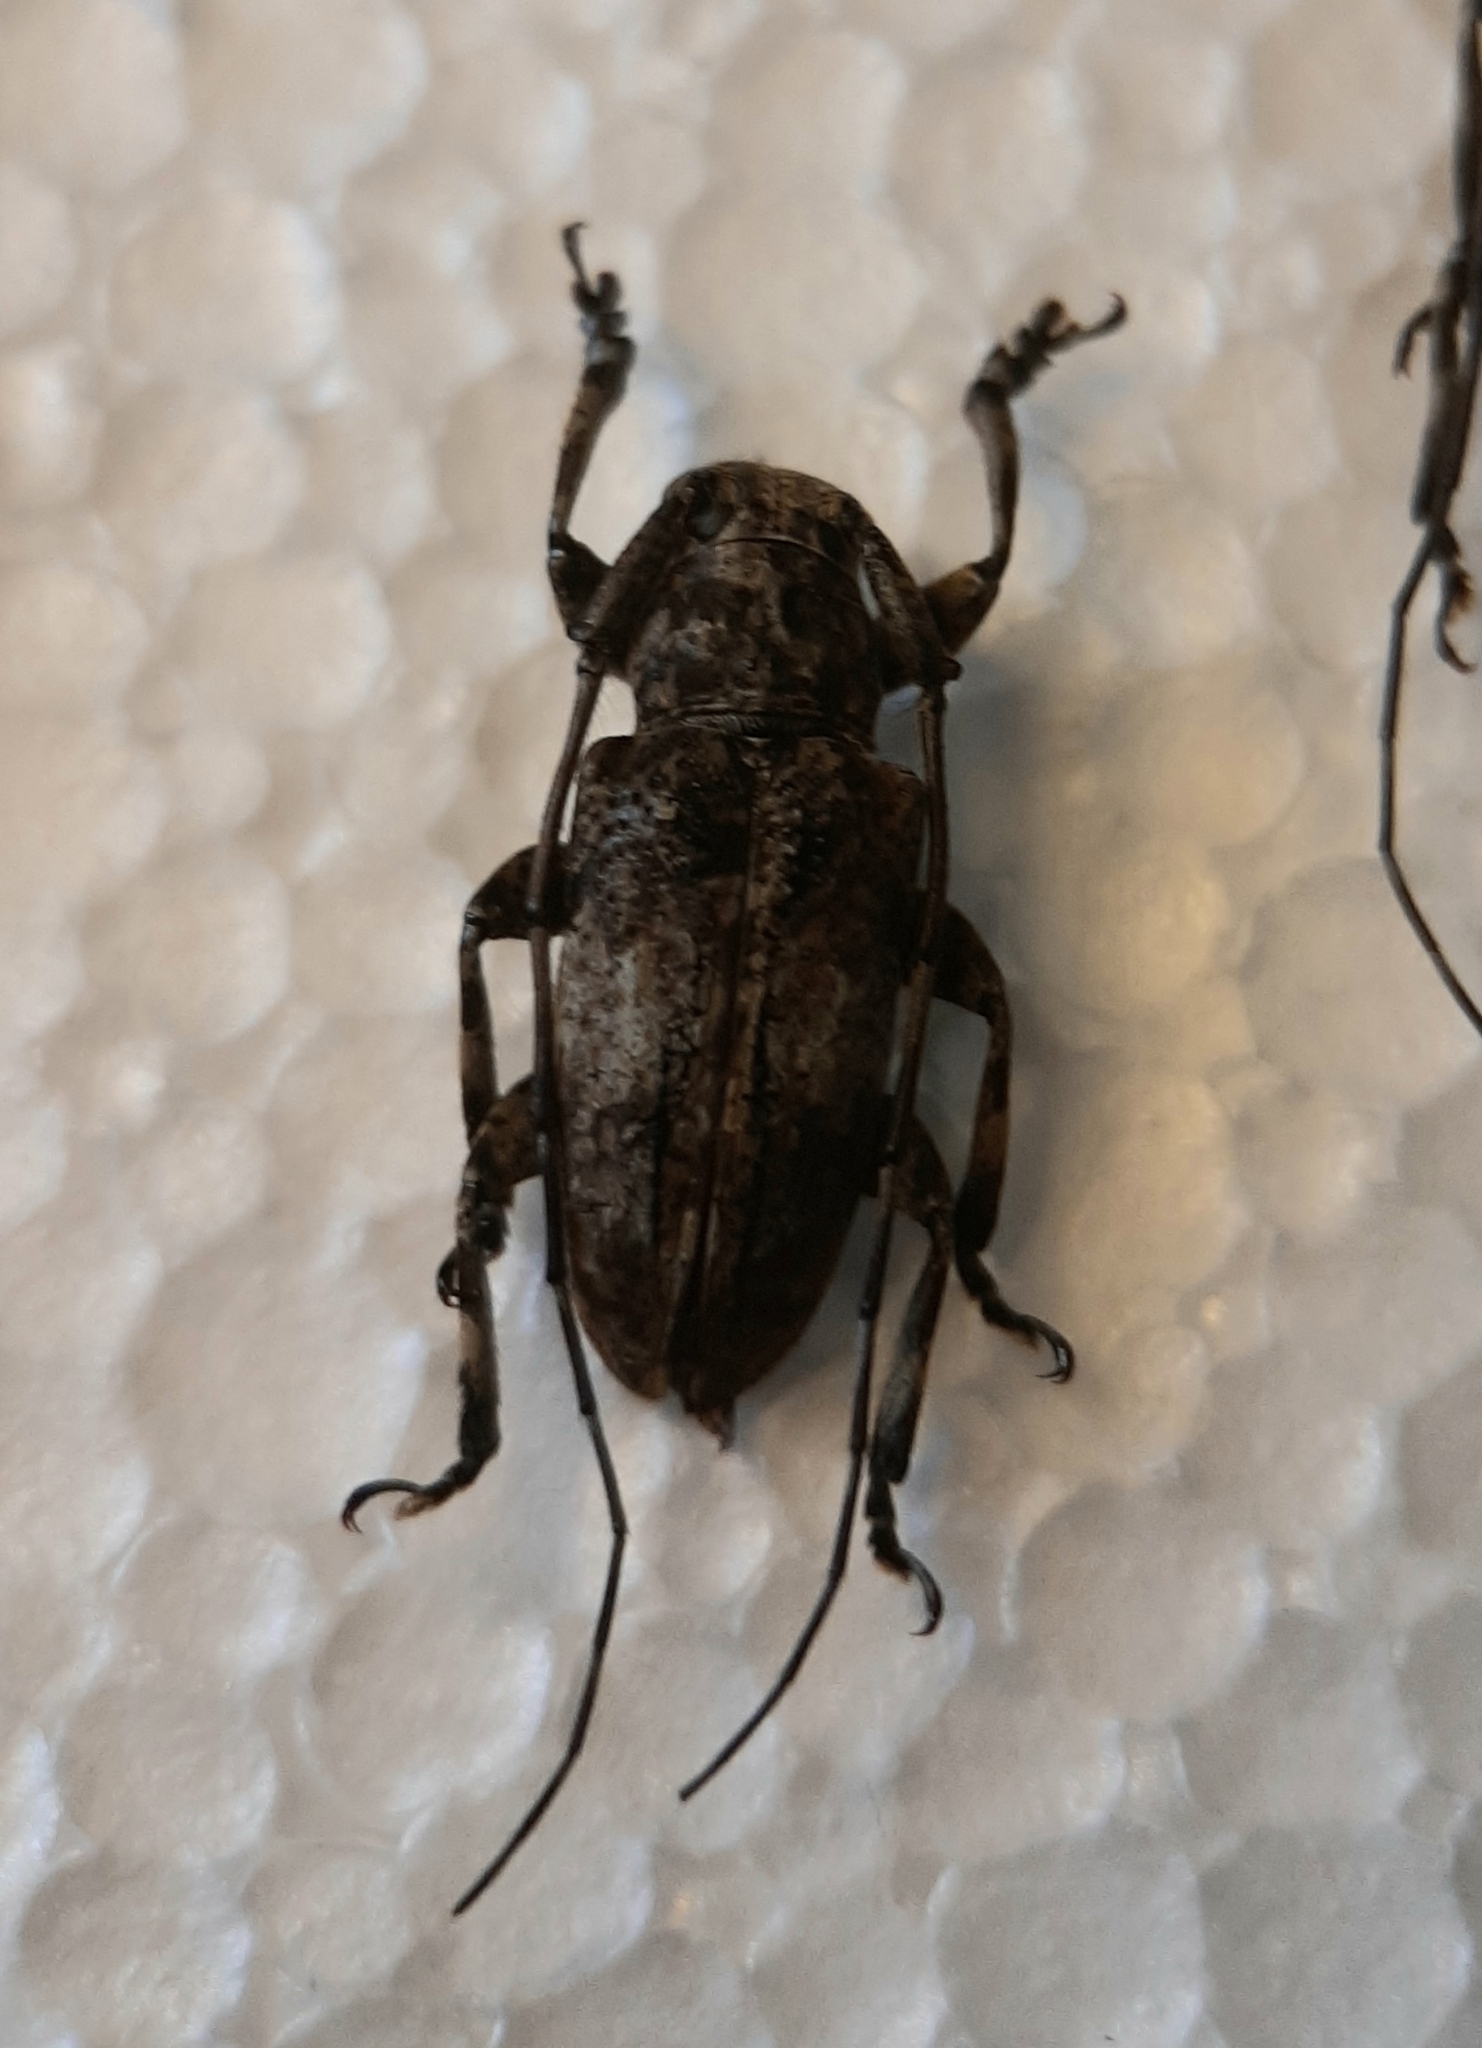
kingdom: Animalia
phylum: Arthropoda
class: Insecta
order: Coleoptera
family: Cerambycidae
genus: Mesosa
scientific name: Mesosa subfasciata
